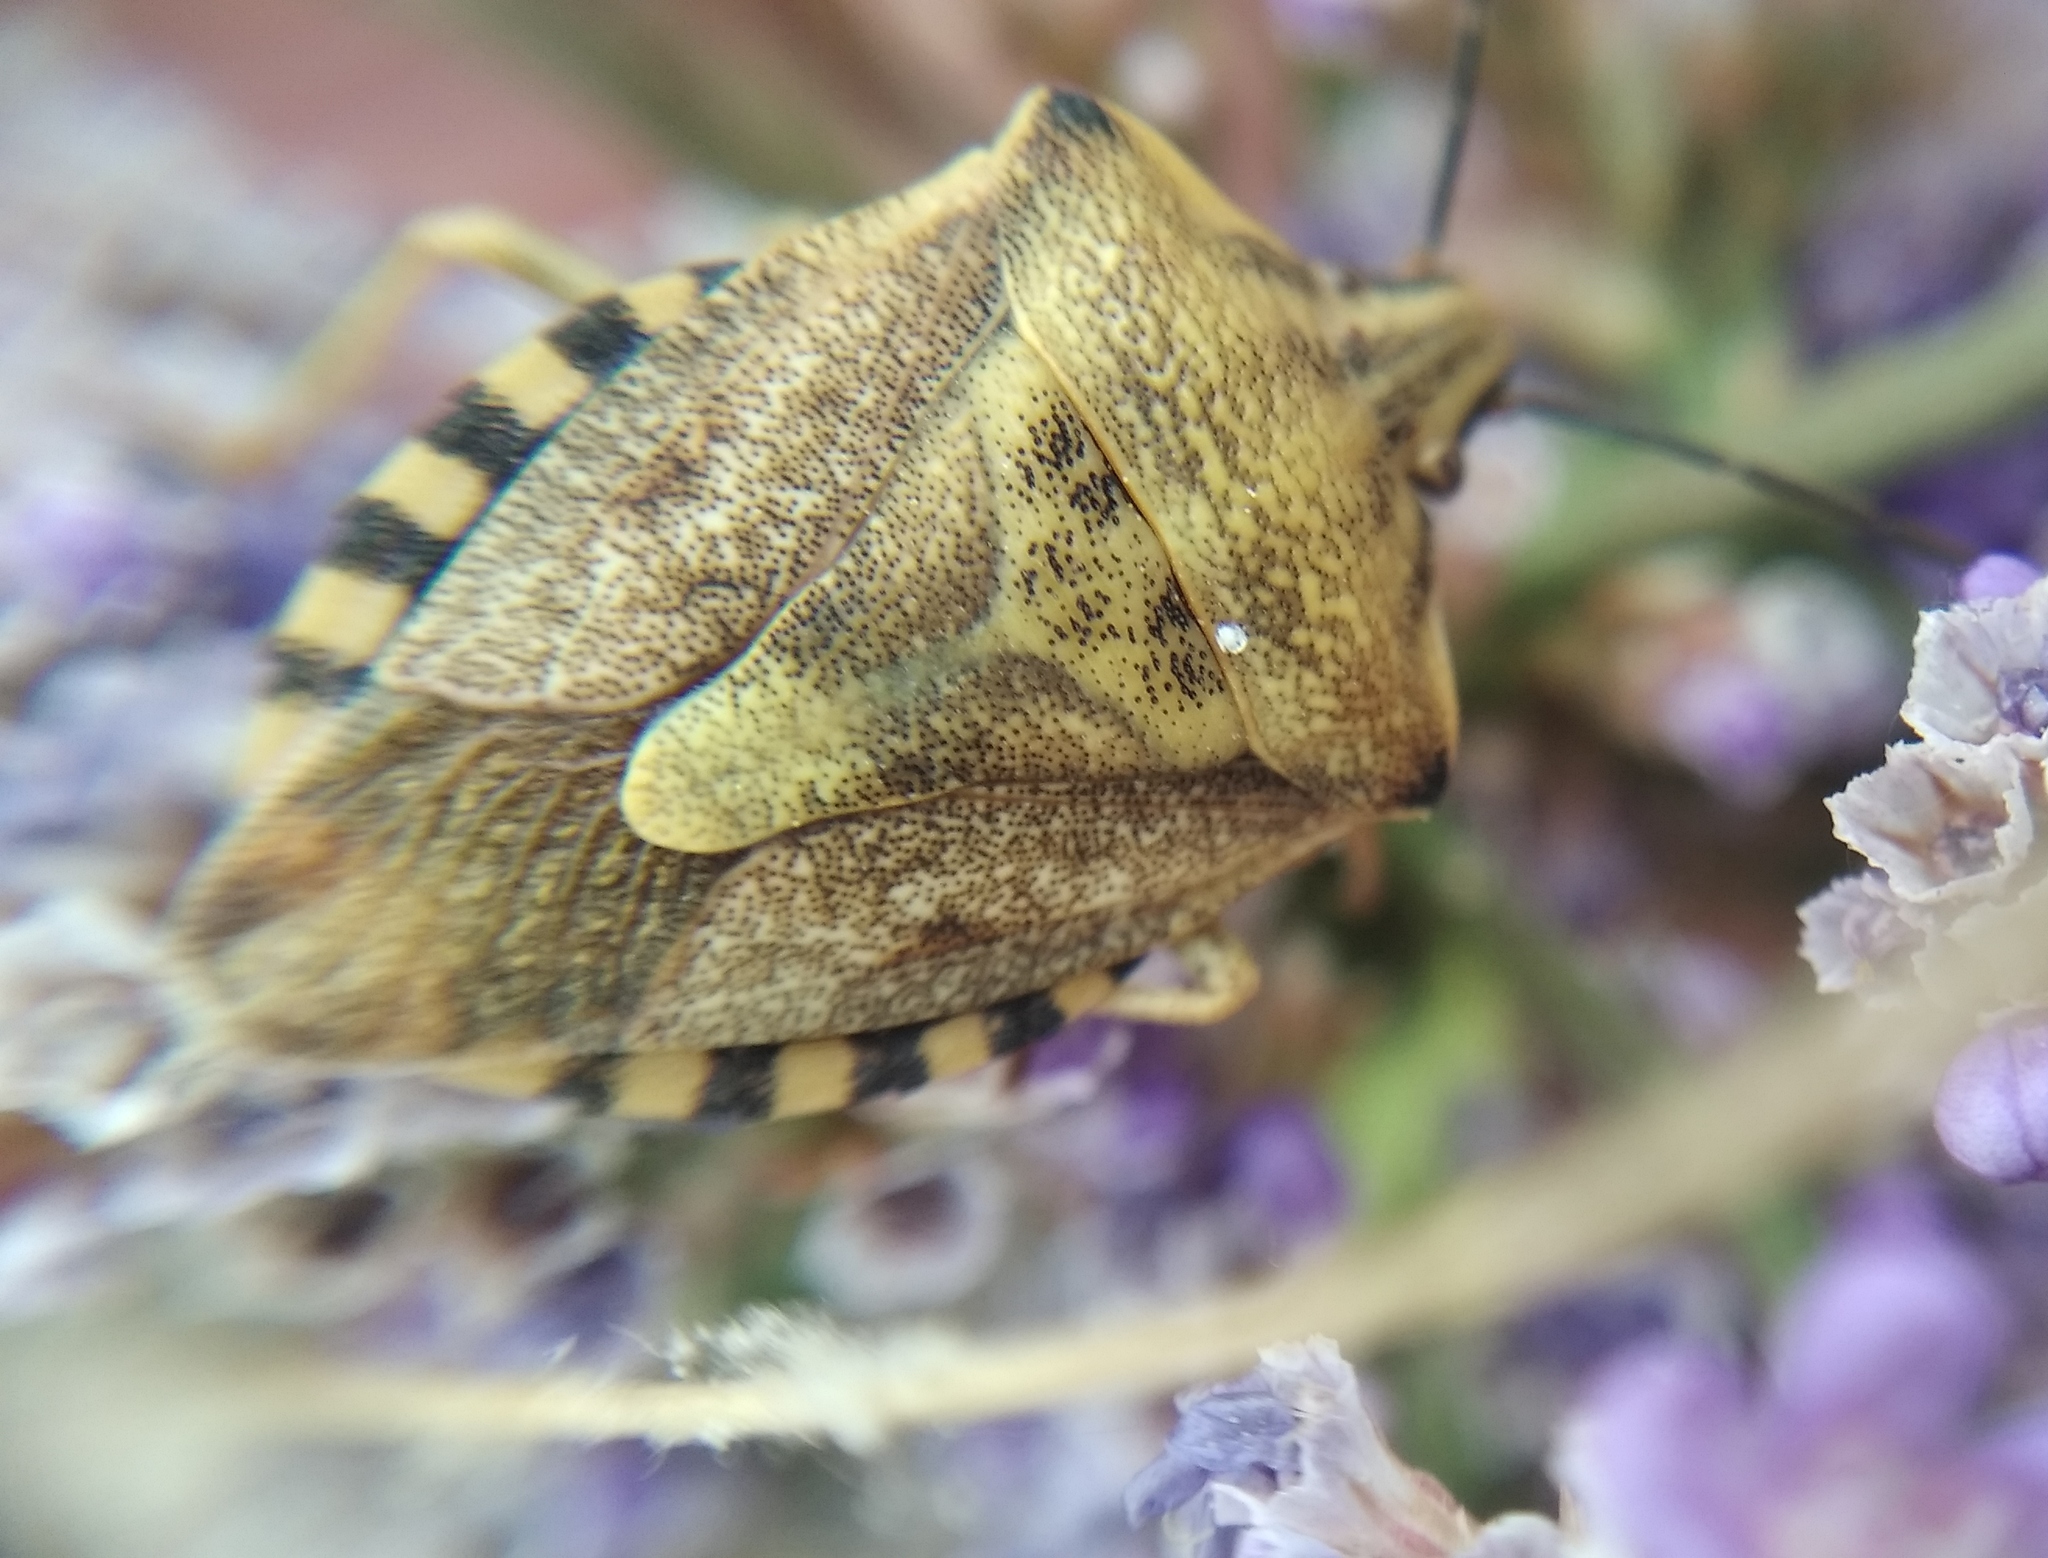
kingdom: Animalia
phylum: Arthropoda
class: Insecta
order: Hemiptera
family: Pentatomidae
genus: Carpocoris
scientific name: Carpocoris purpureipennis
